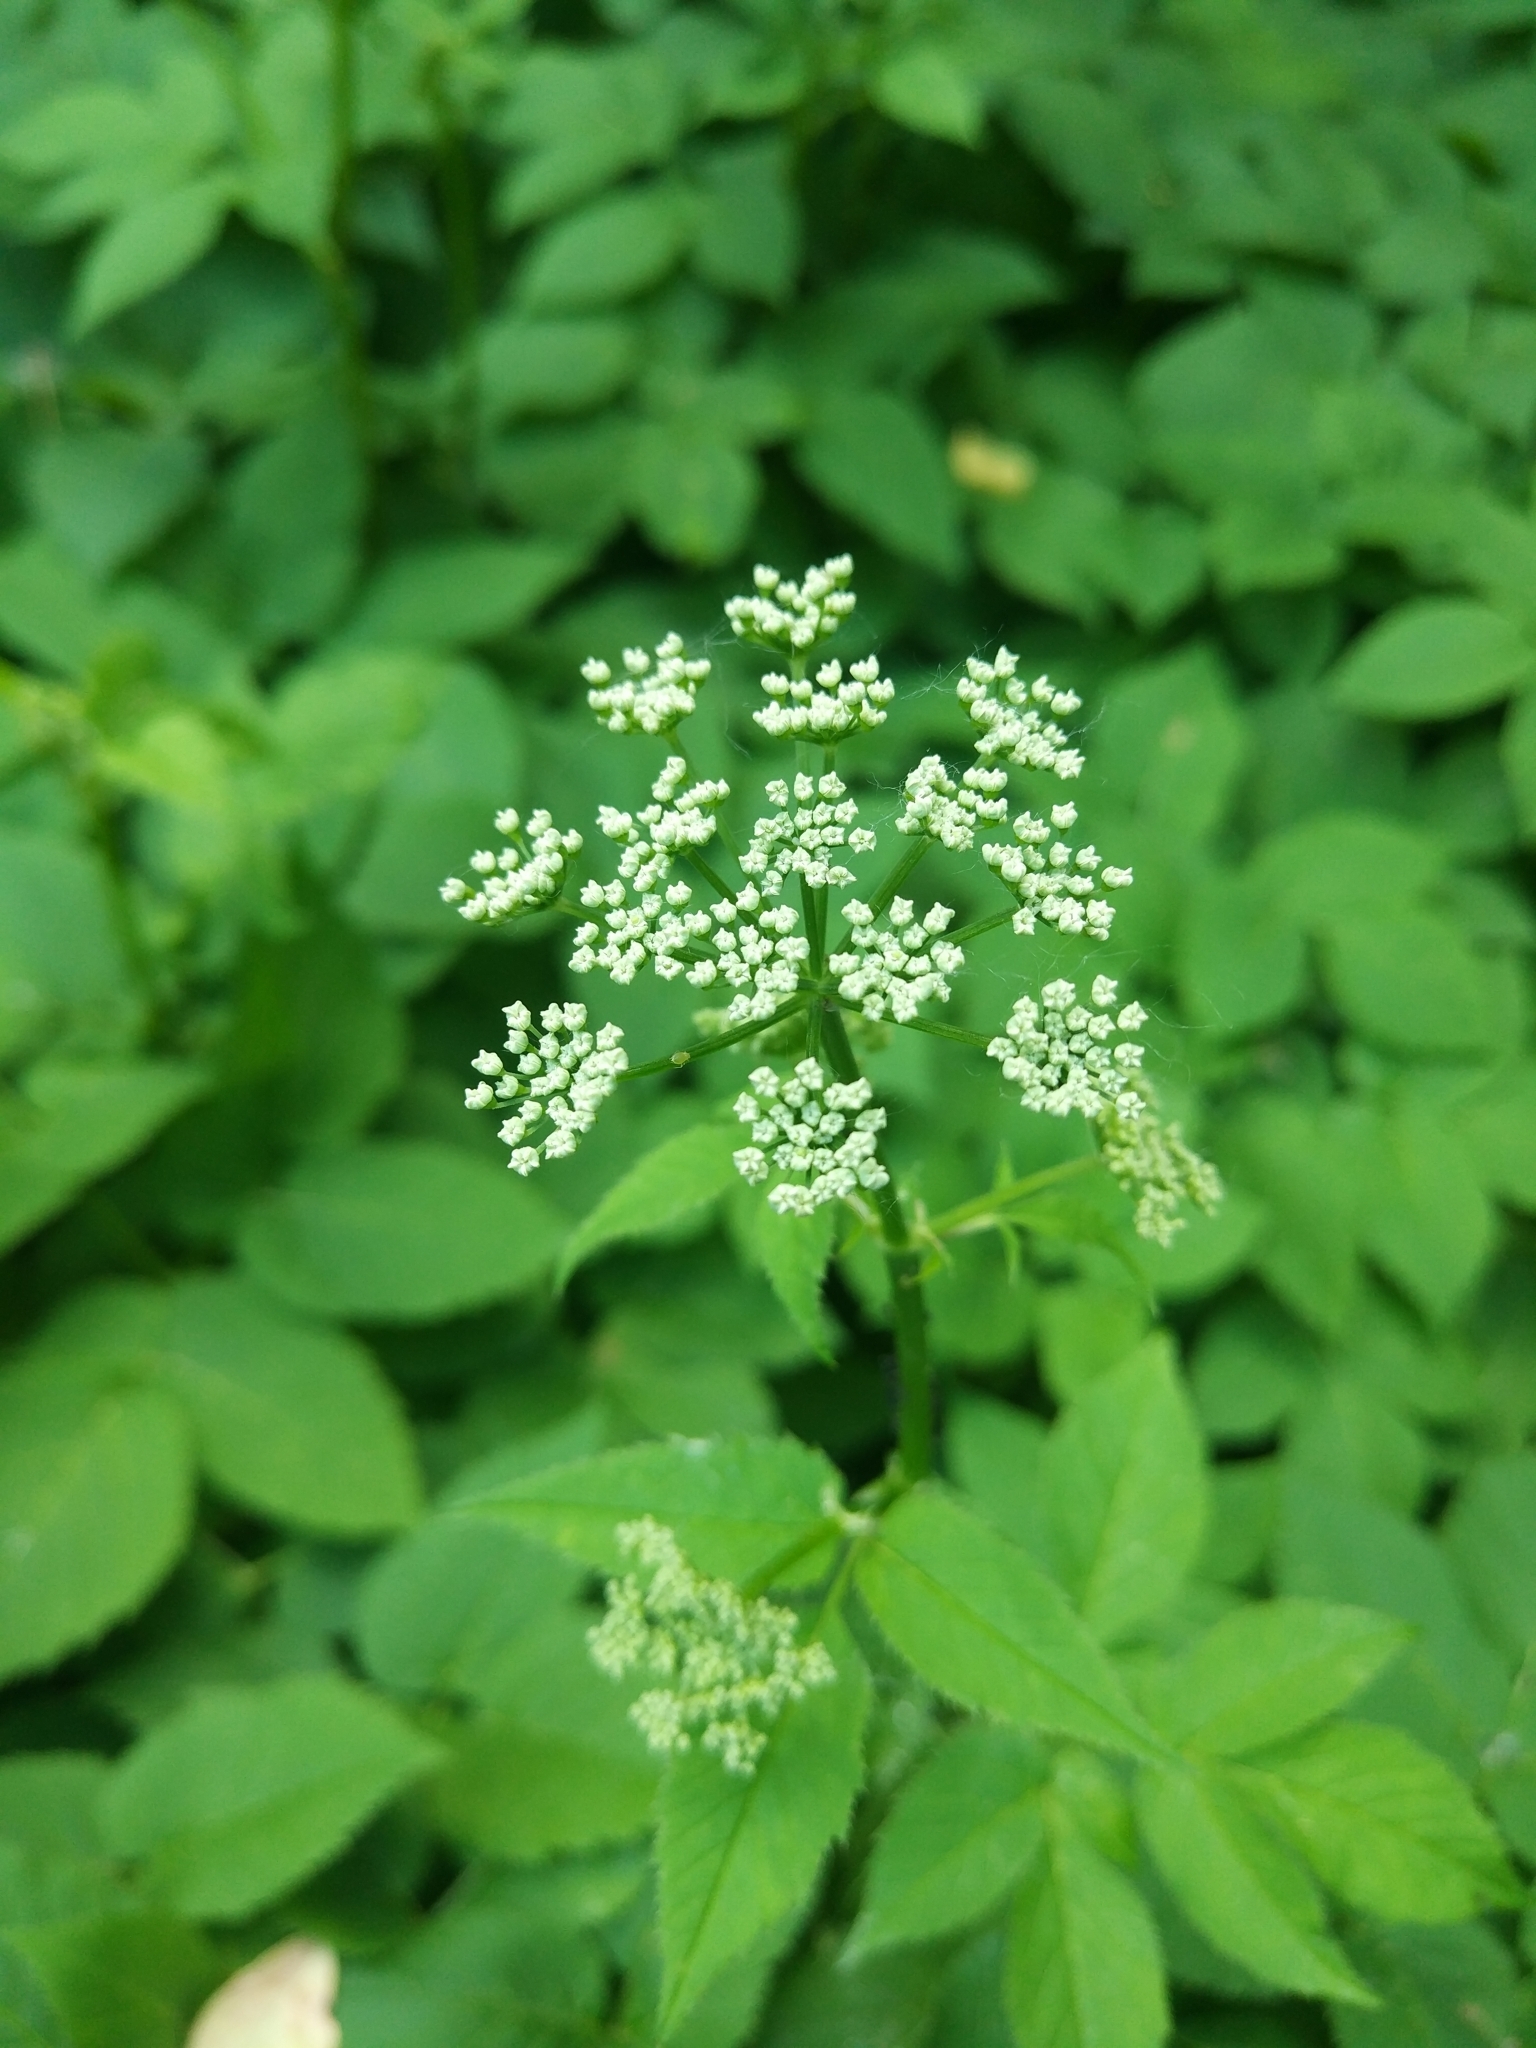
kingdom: Plantae
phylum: Tracheophyta
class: Magnoliopsida
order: Apiales
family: Apiaceae
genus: Aegopodium
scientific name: Aegopodium podagraria
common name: Ground-elder
